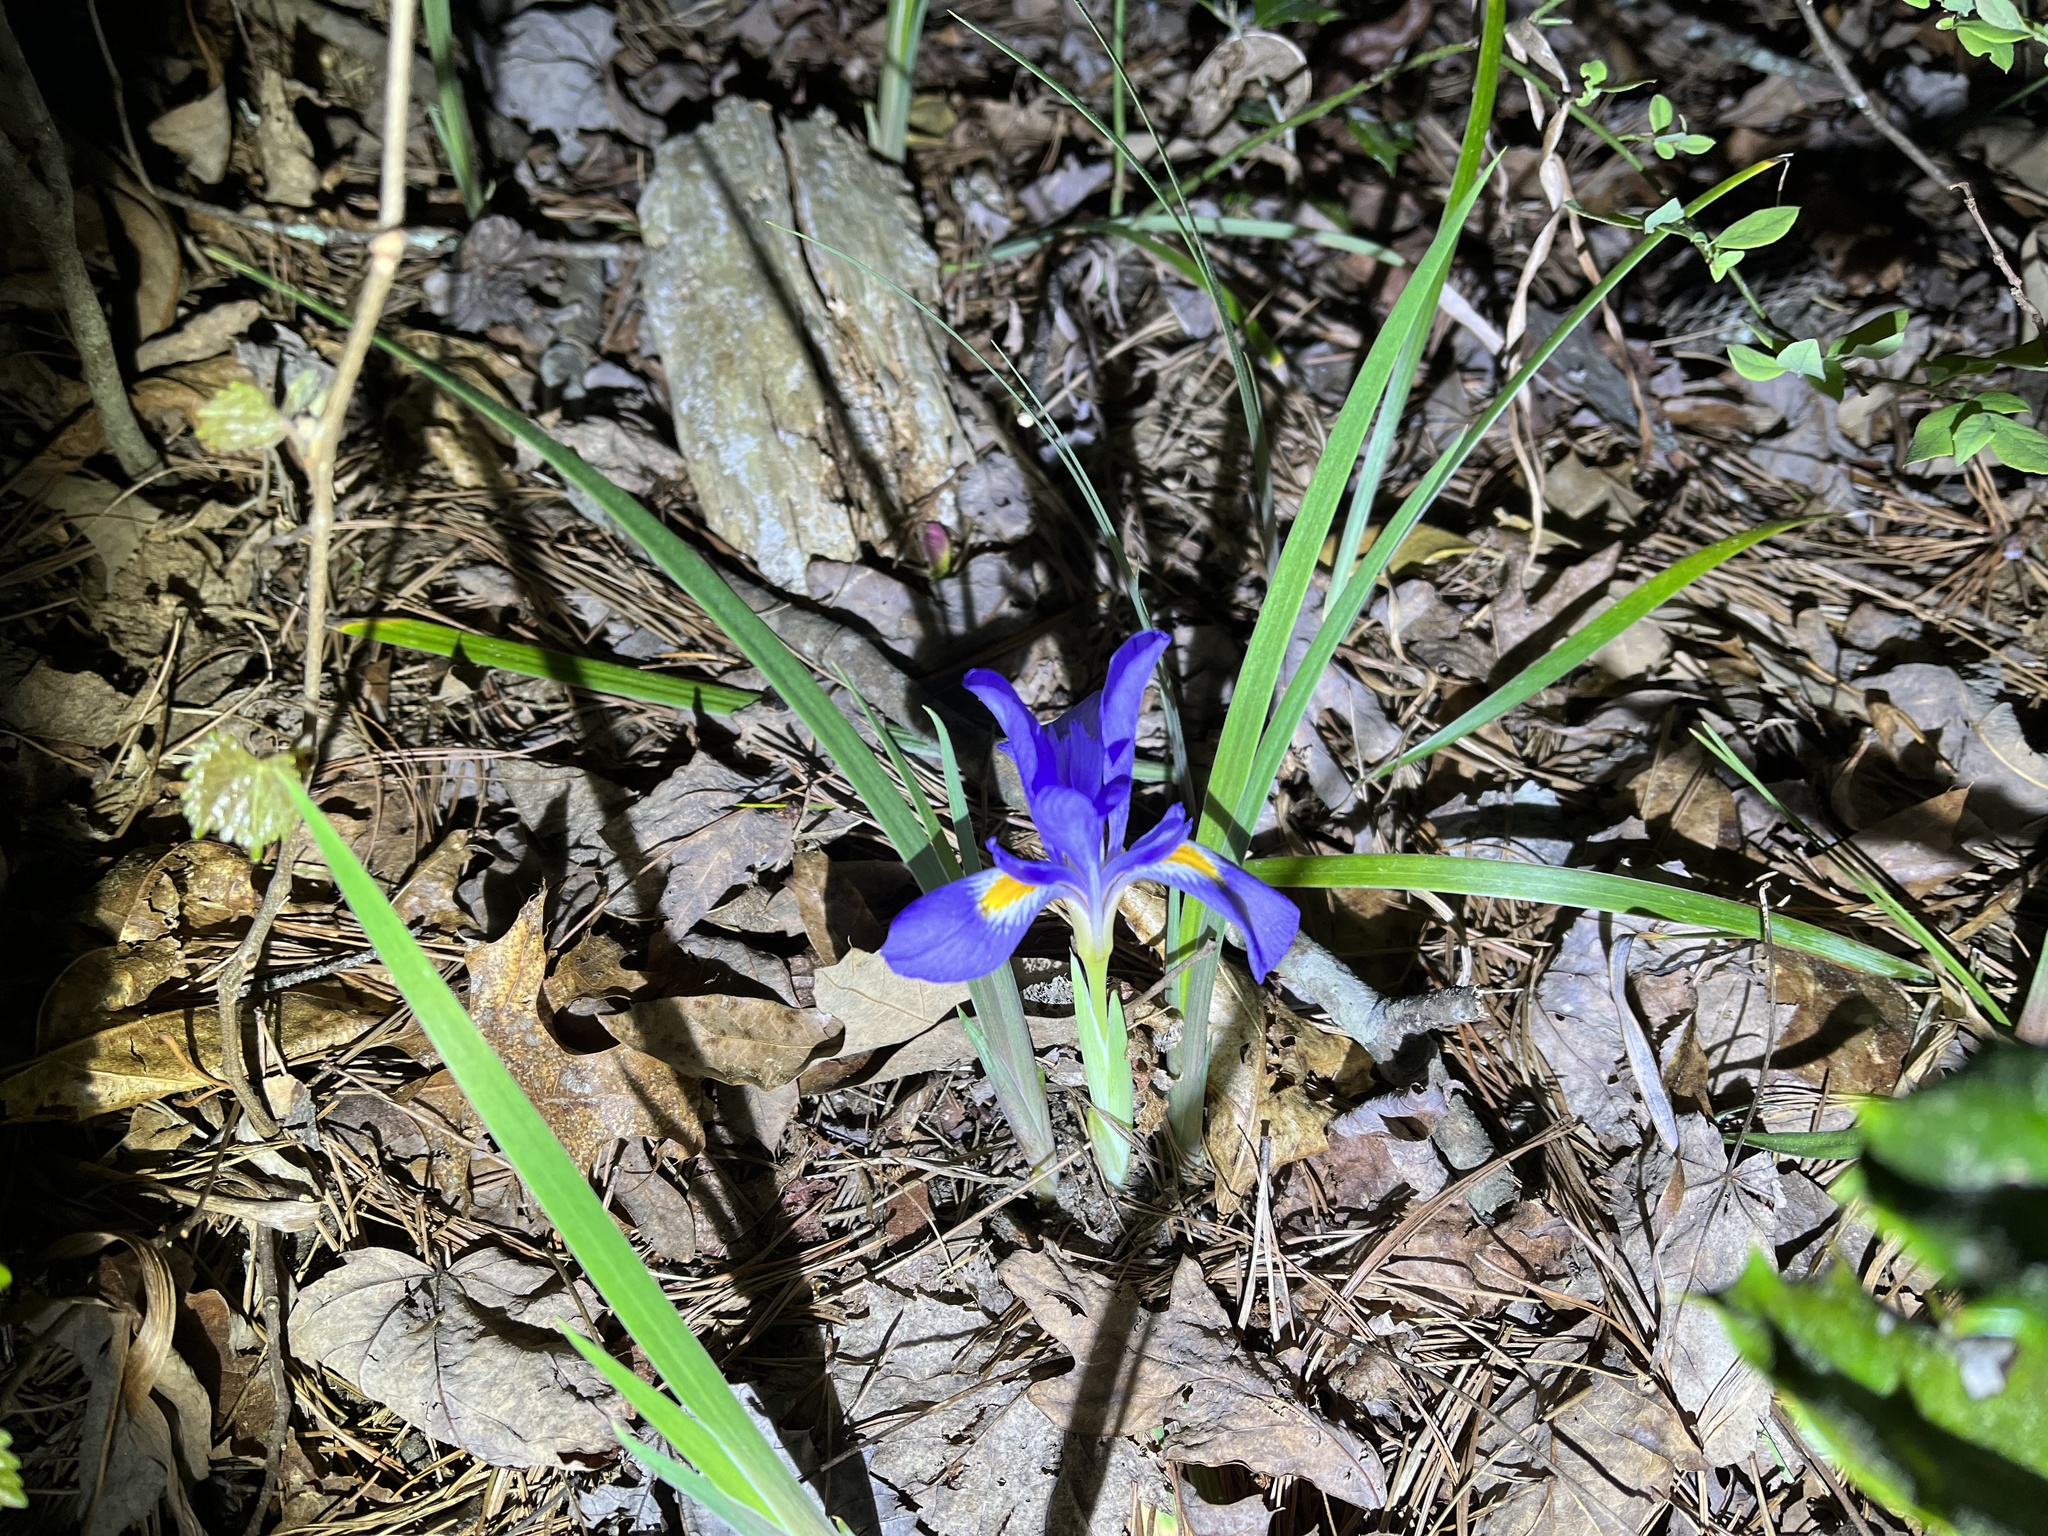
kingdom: Plantae
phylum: Tracheophyta
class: Liliopsida
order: Asparagales
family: Iridaceae
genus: Iris
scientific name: Iris verna
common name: Dwarf iris
